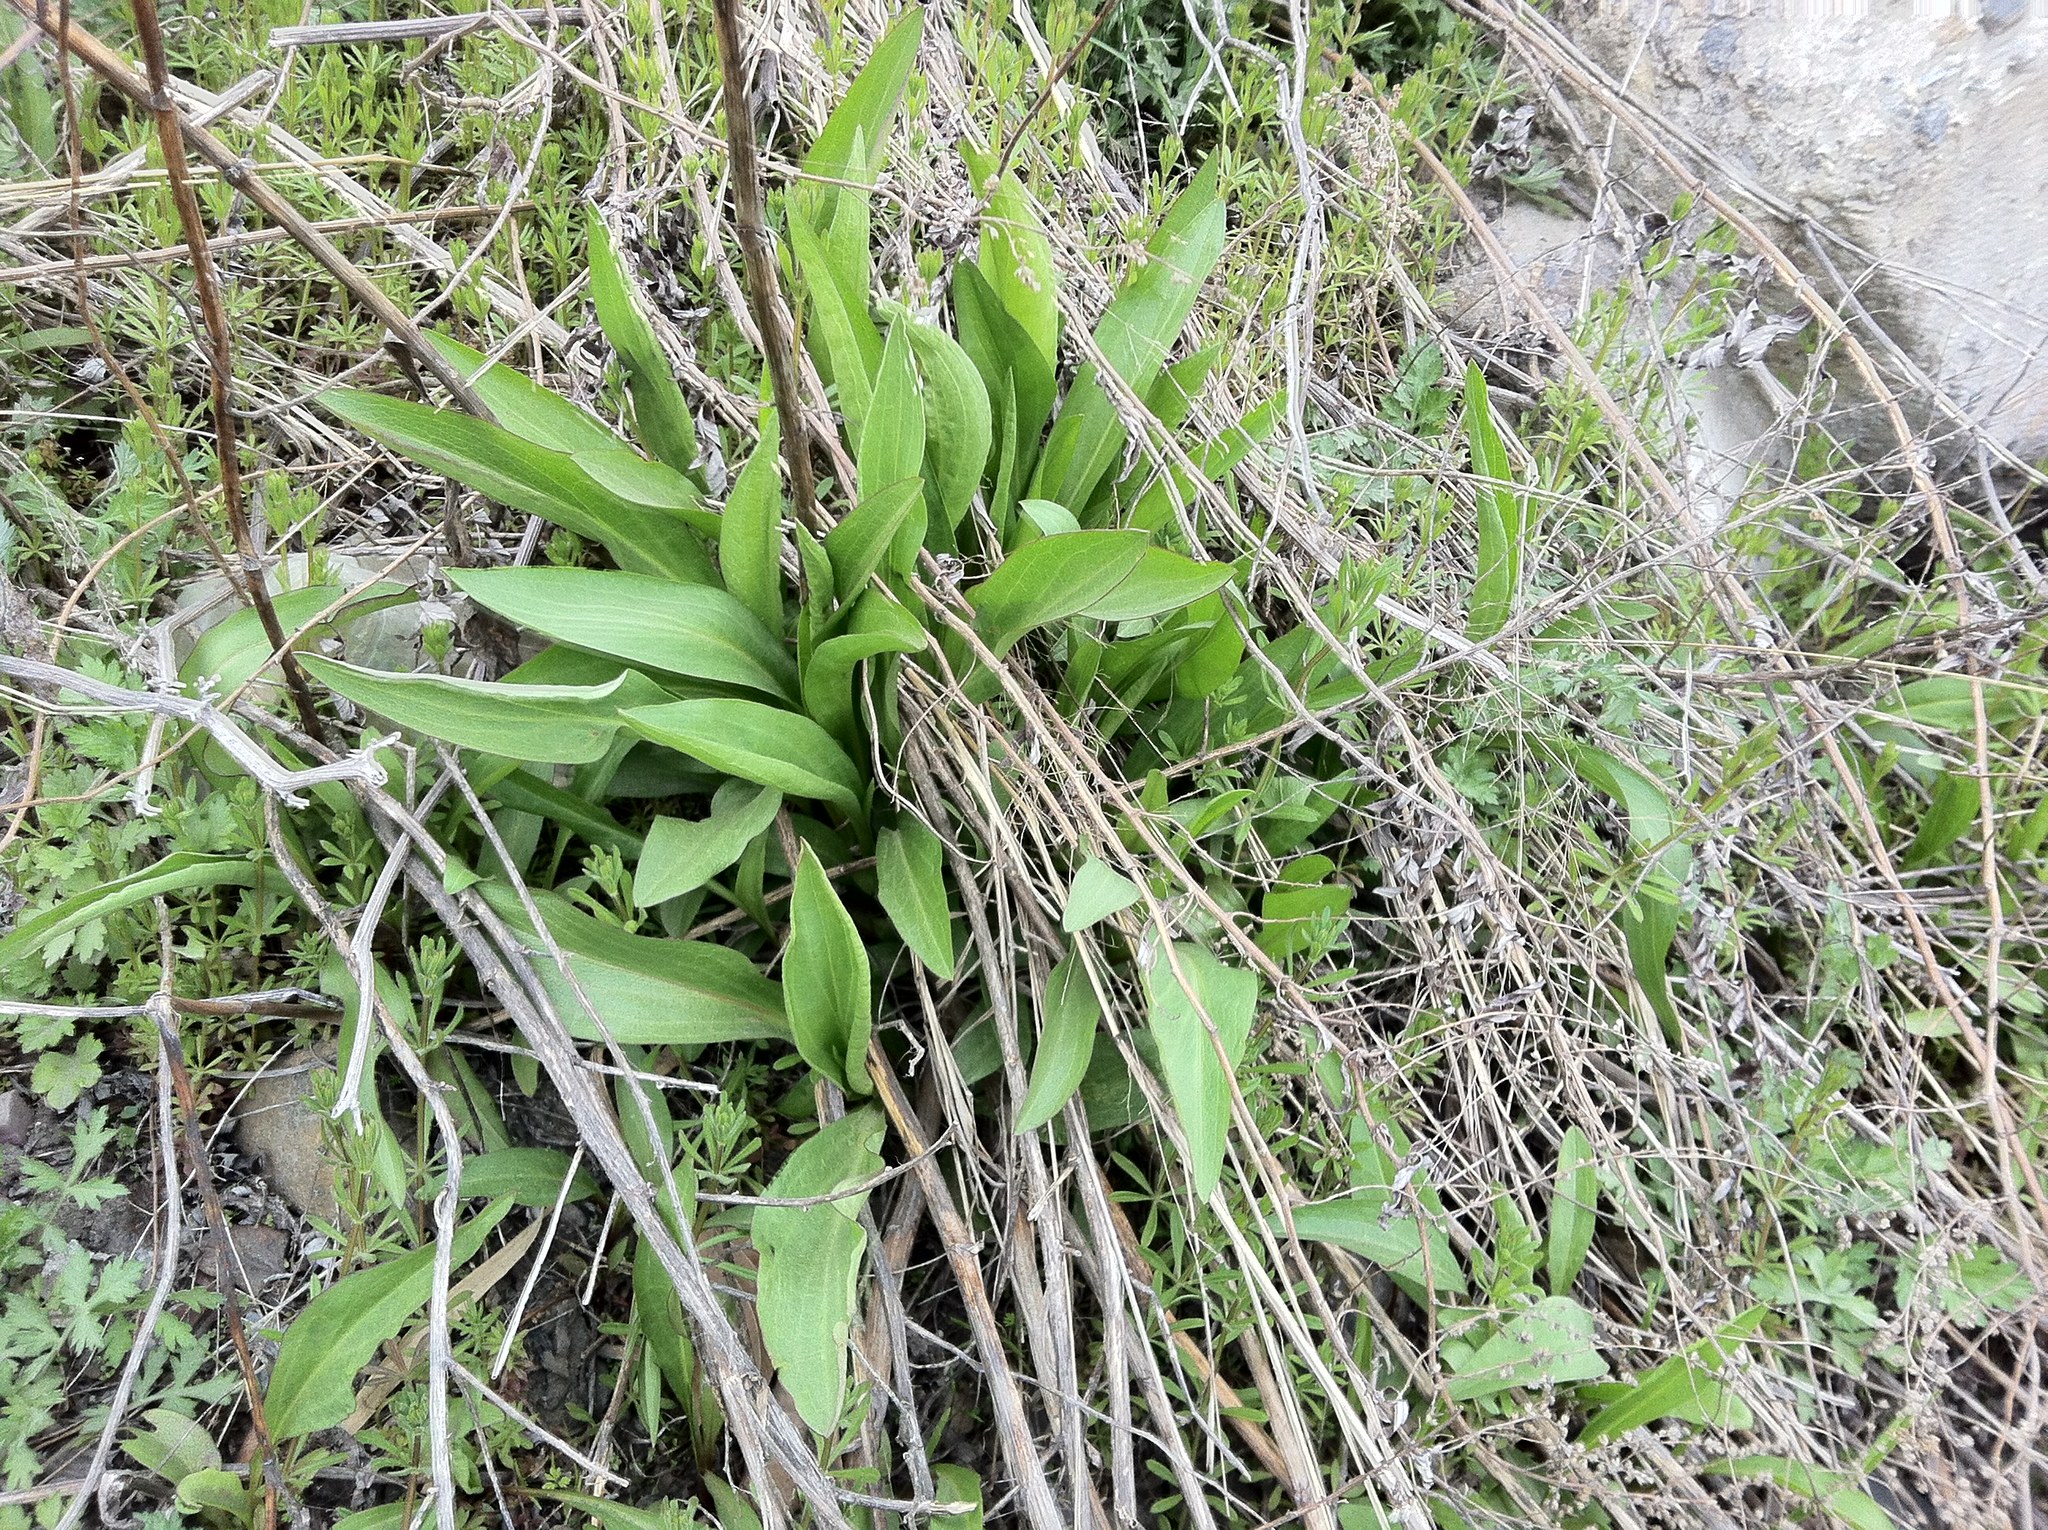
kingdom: Plantae
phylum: Tracheophyta
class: Magnoliopsida
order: Asterales
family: Asteraceae
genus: Solidago
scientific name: Solidago sempervirens
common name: Salt-marsh goldenrod
